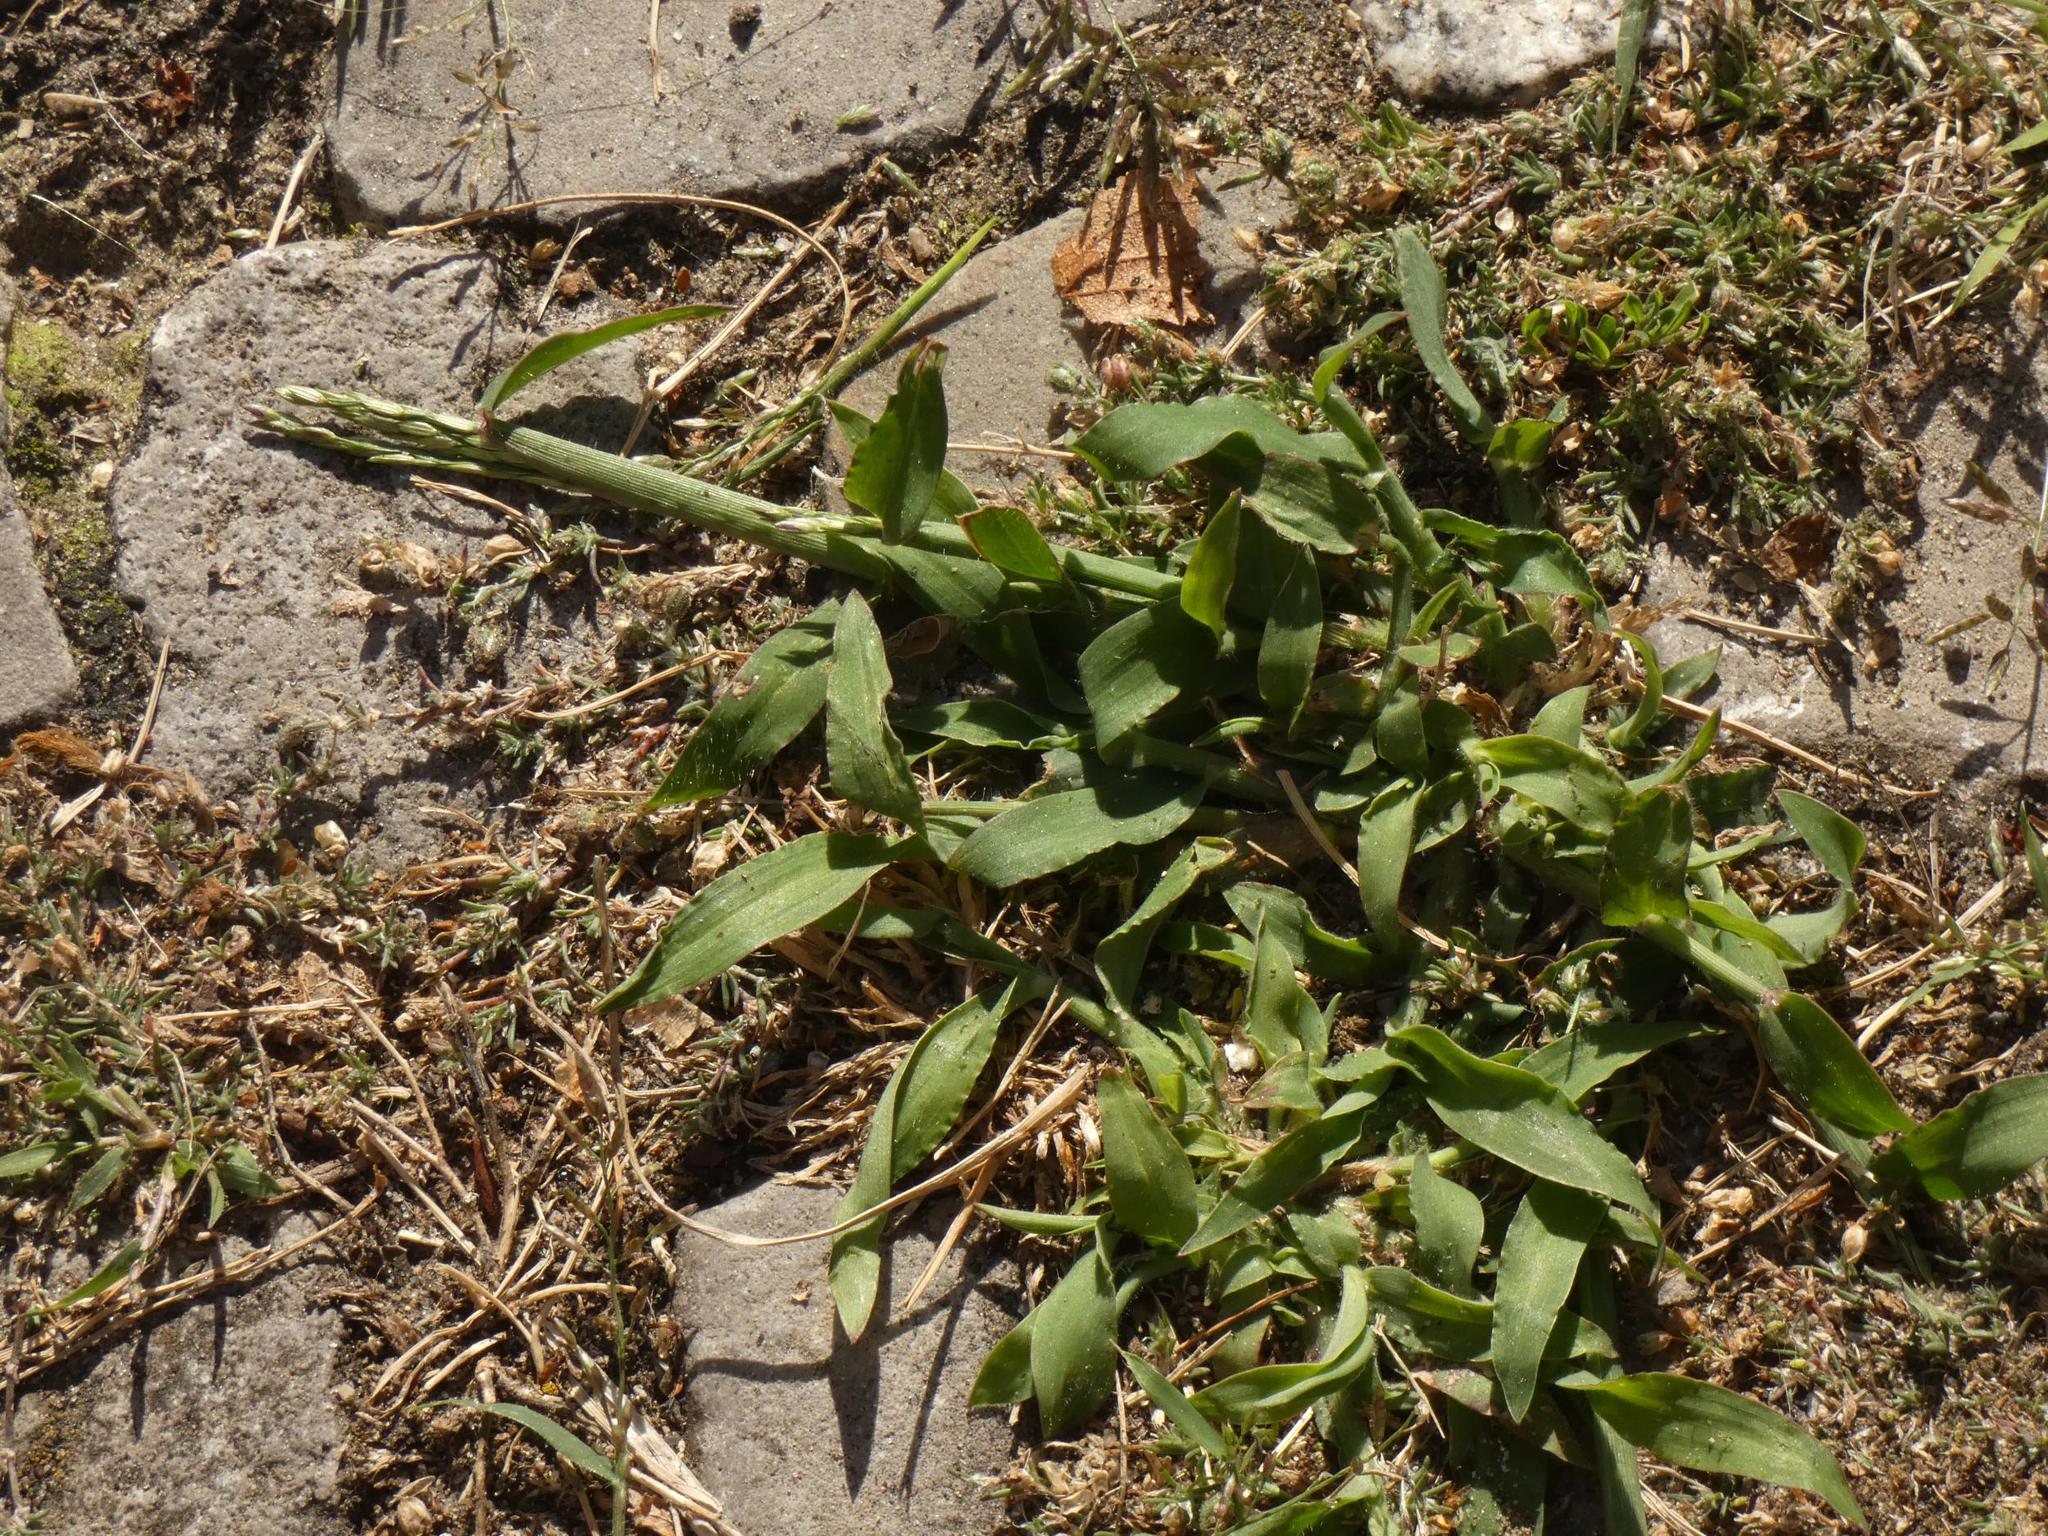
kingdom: Plantae
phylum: Tracheophyta
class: Liliopsida
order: Poales
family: Poaceae
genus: Digitaria
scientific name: Digitaria sanguinalis
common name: Hairy crabgrass
